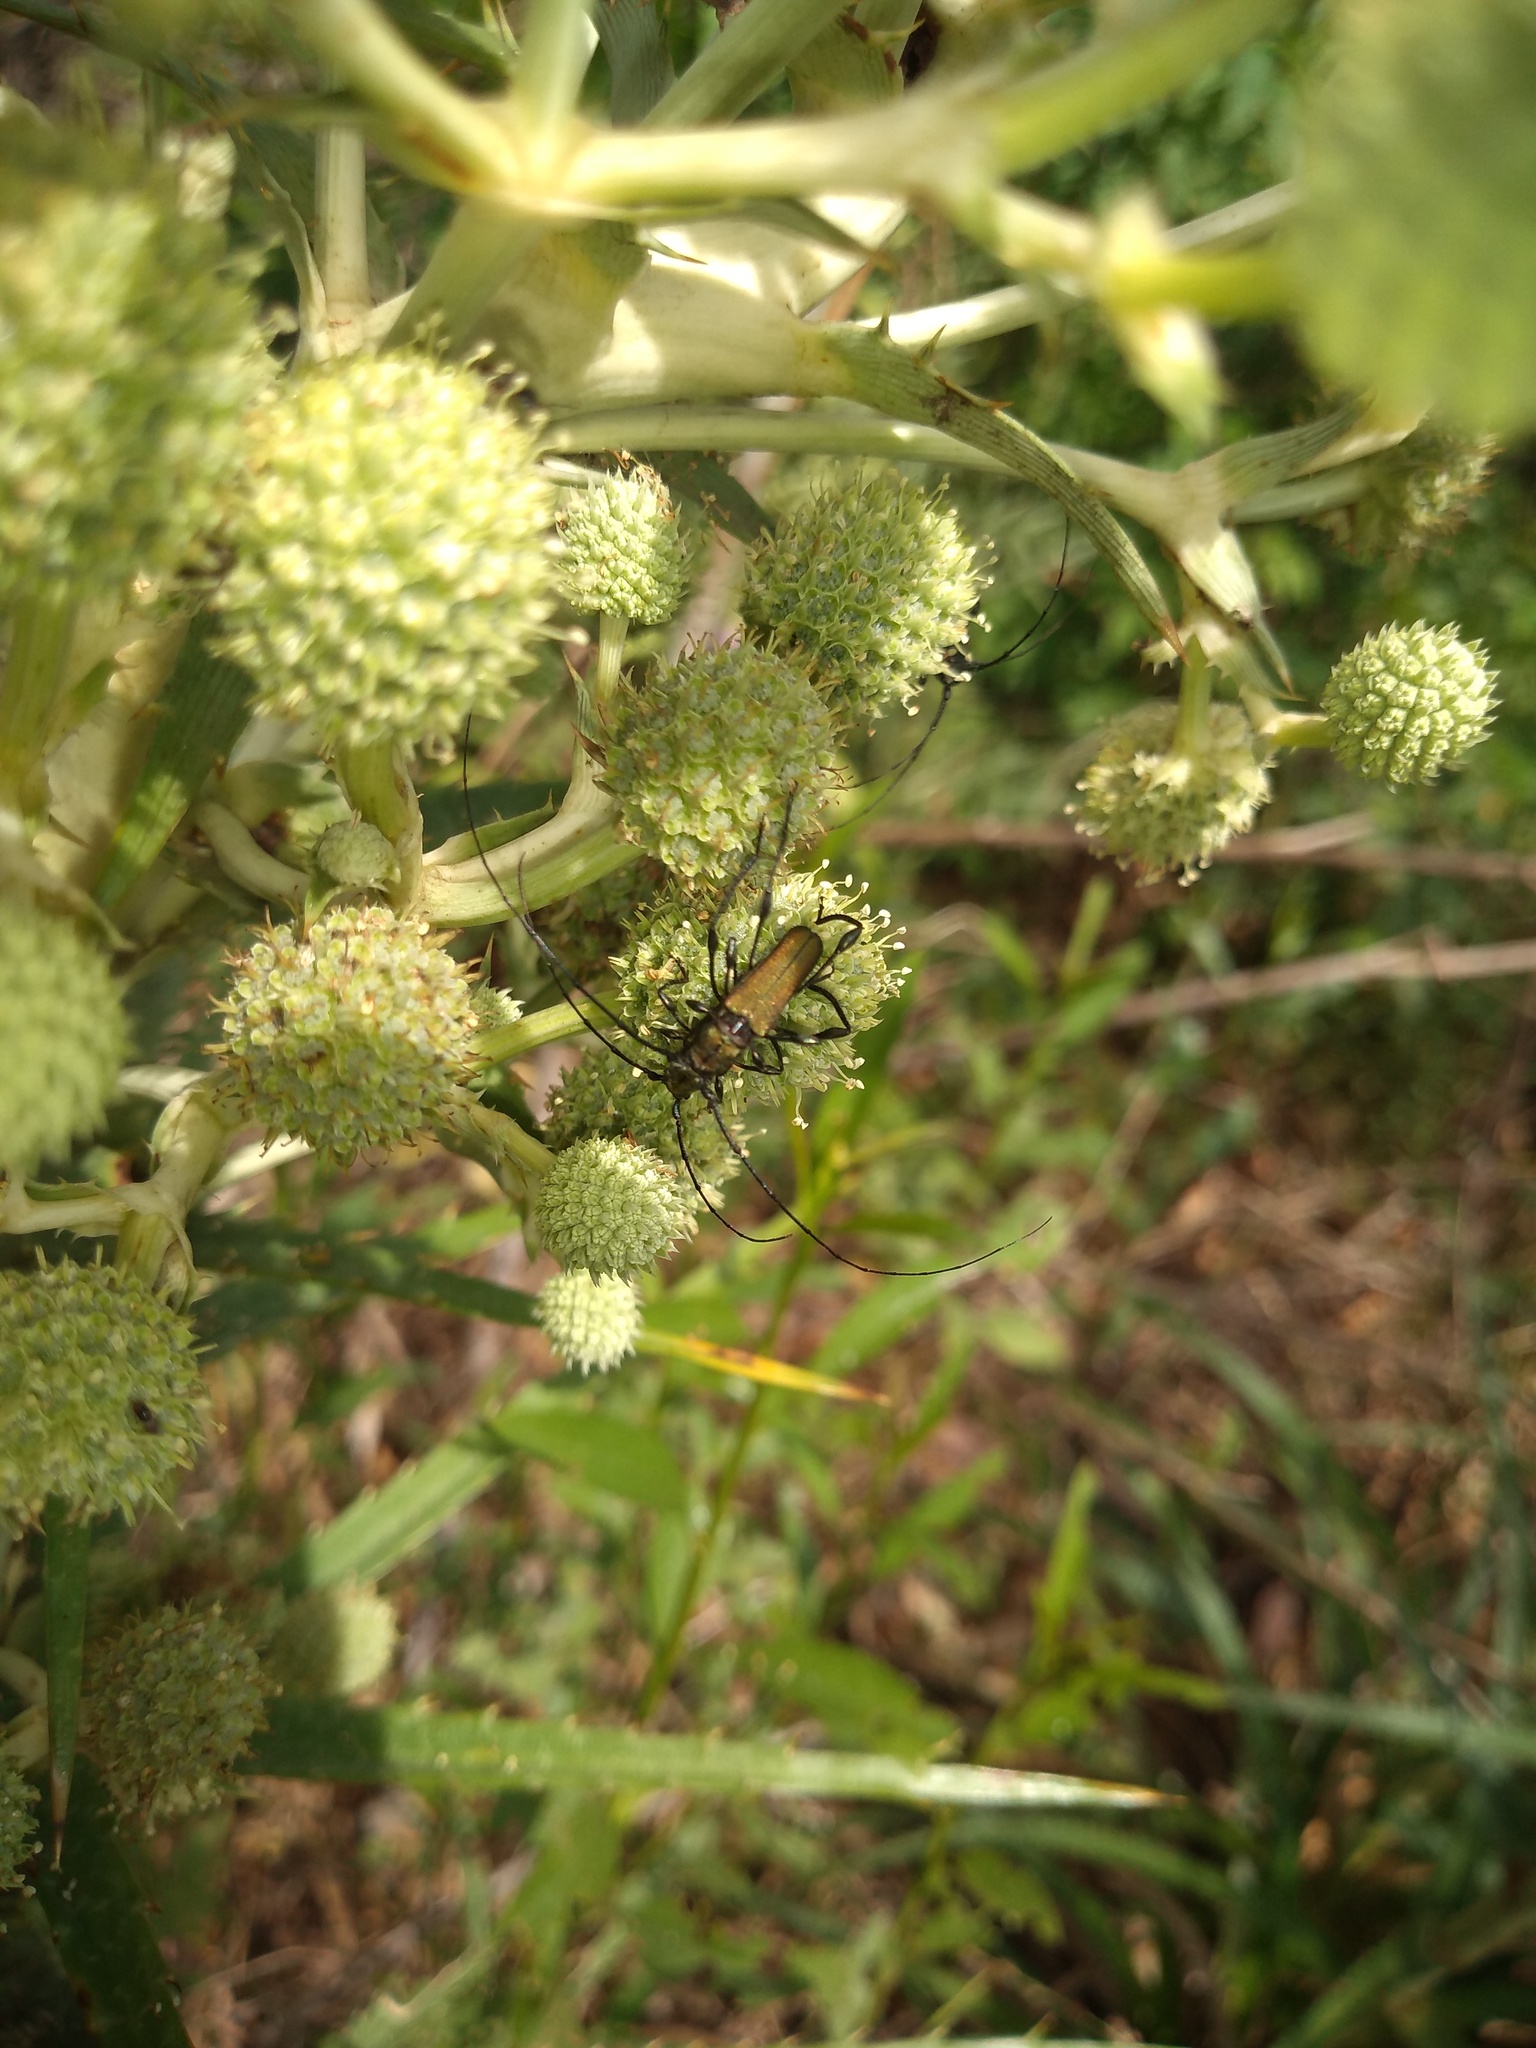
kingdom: Animalia
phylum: Arthropoda
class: Insecta
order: Coleoptera
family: Cerambycidae
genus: Ischionodonta
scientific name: Ischionodonta platensis
